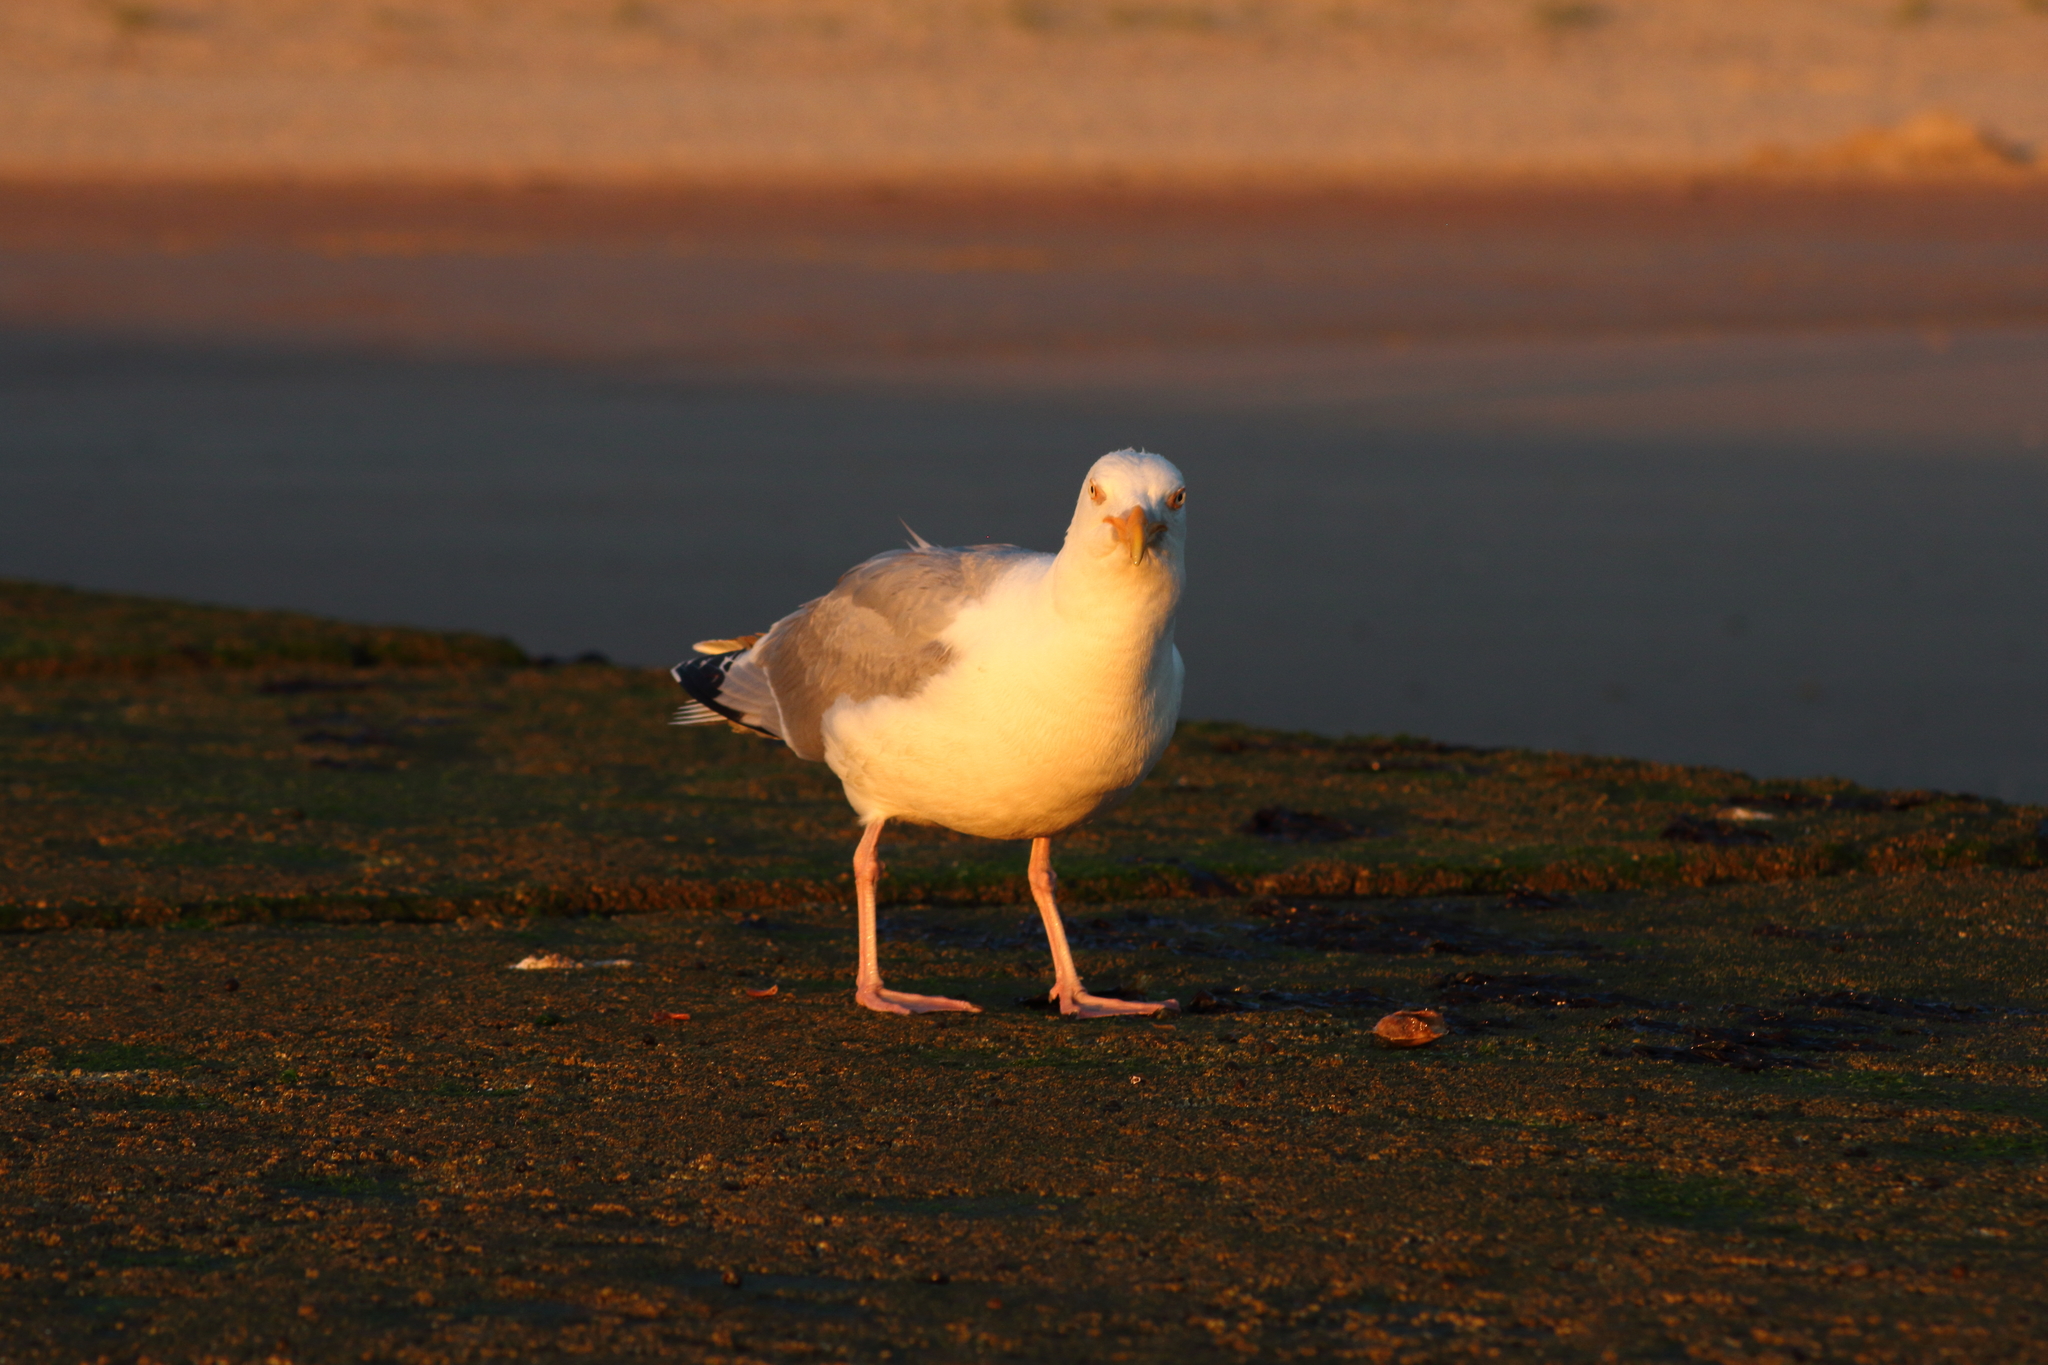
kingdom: Animalia
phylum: Chordata
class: Aves
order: Charadriiformes
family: Laridae
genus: Larus
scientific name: Larus argentatus
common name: Herring gull
